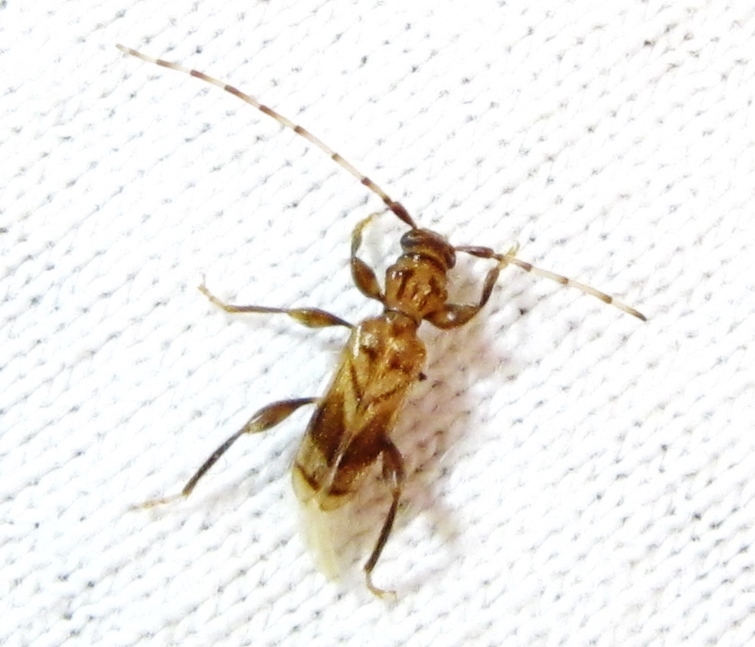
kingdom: Animalia
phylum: Arthropoda
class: Insecta
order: Coleoptera
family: Cerambycidae
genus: Obrium
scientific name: Obrium maculatum
